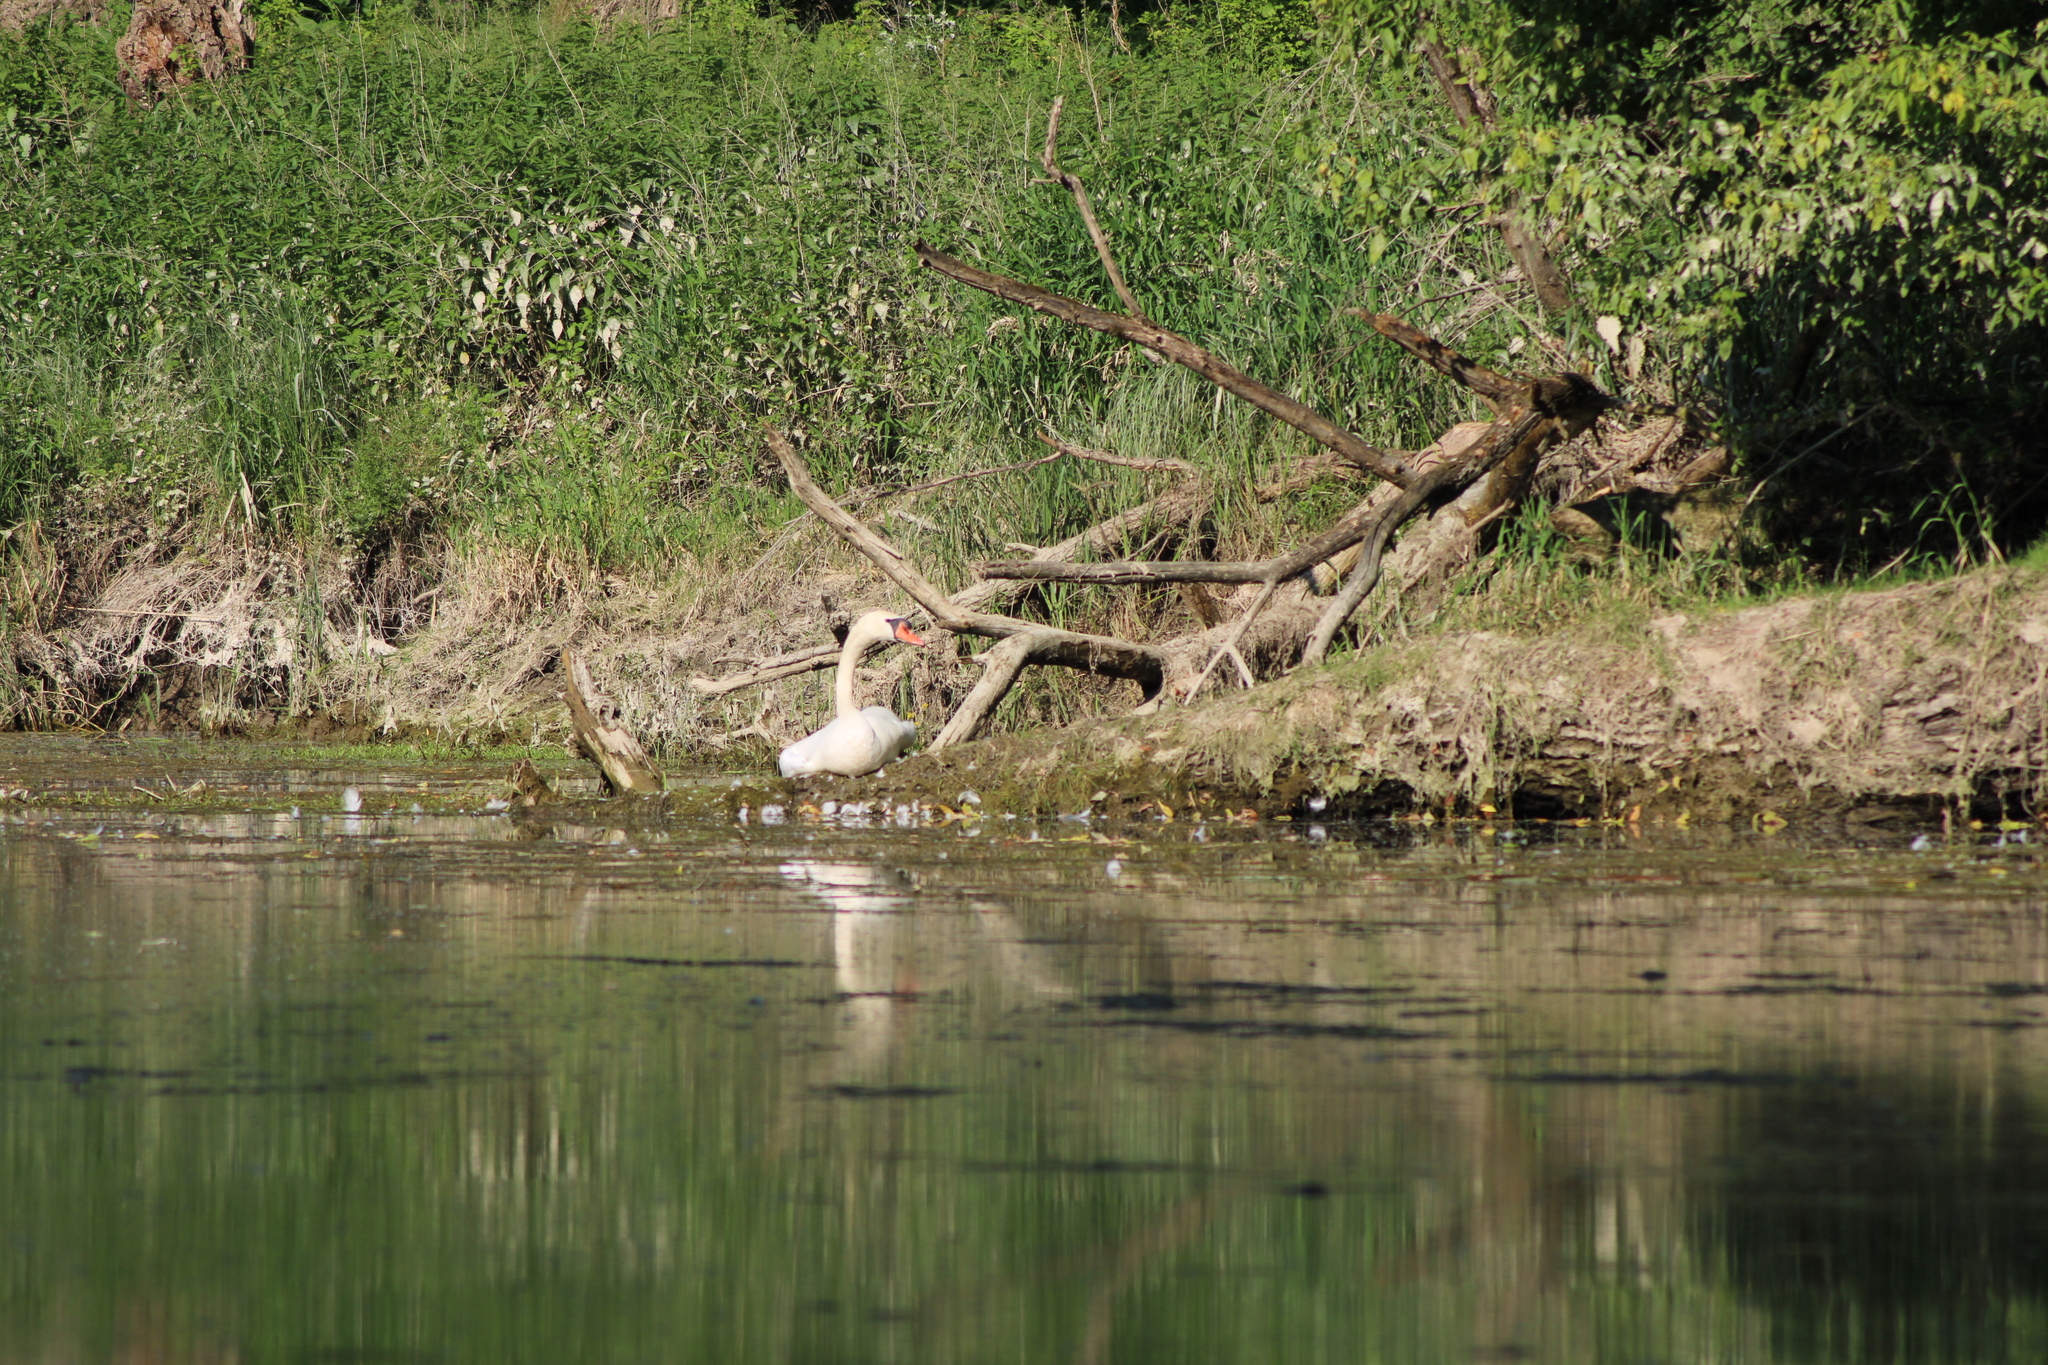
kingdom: Animalia
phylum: Chordata
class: Aves
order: Anseriformes
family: Anatidae
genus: Cygnus
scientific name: Cygnus olor
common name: Mute swan
